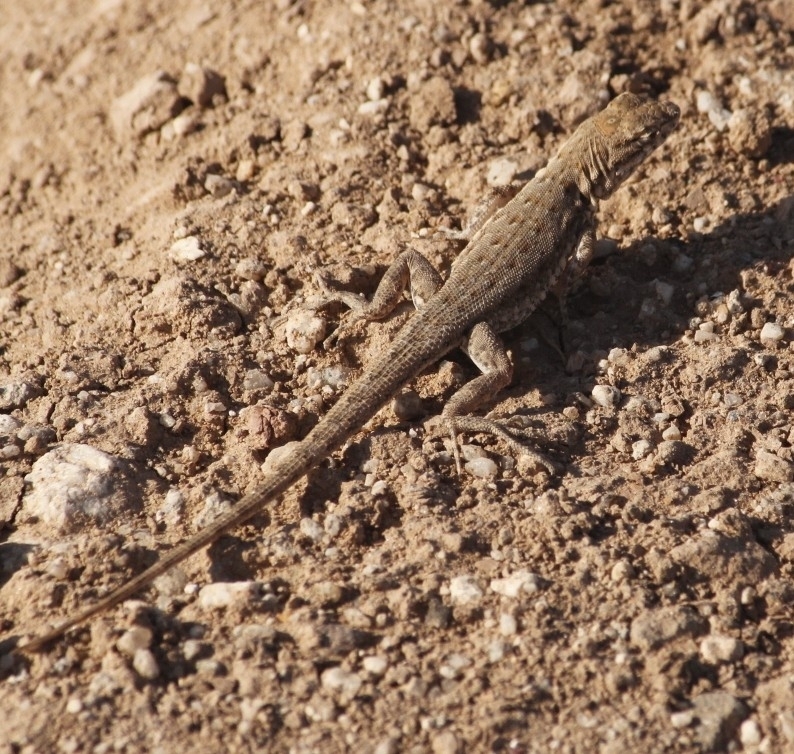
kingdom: Animalia
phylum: Chordata
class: Squamata
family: Phrynosomatidae
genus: Uta
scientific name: Uta stansburiana
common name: Side-blotched lizard
